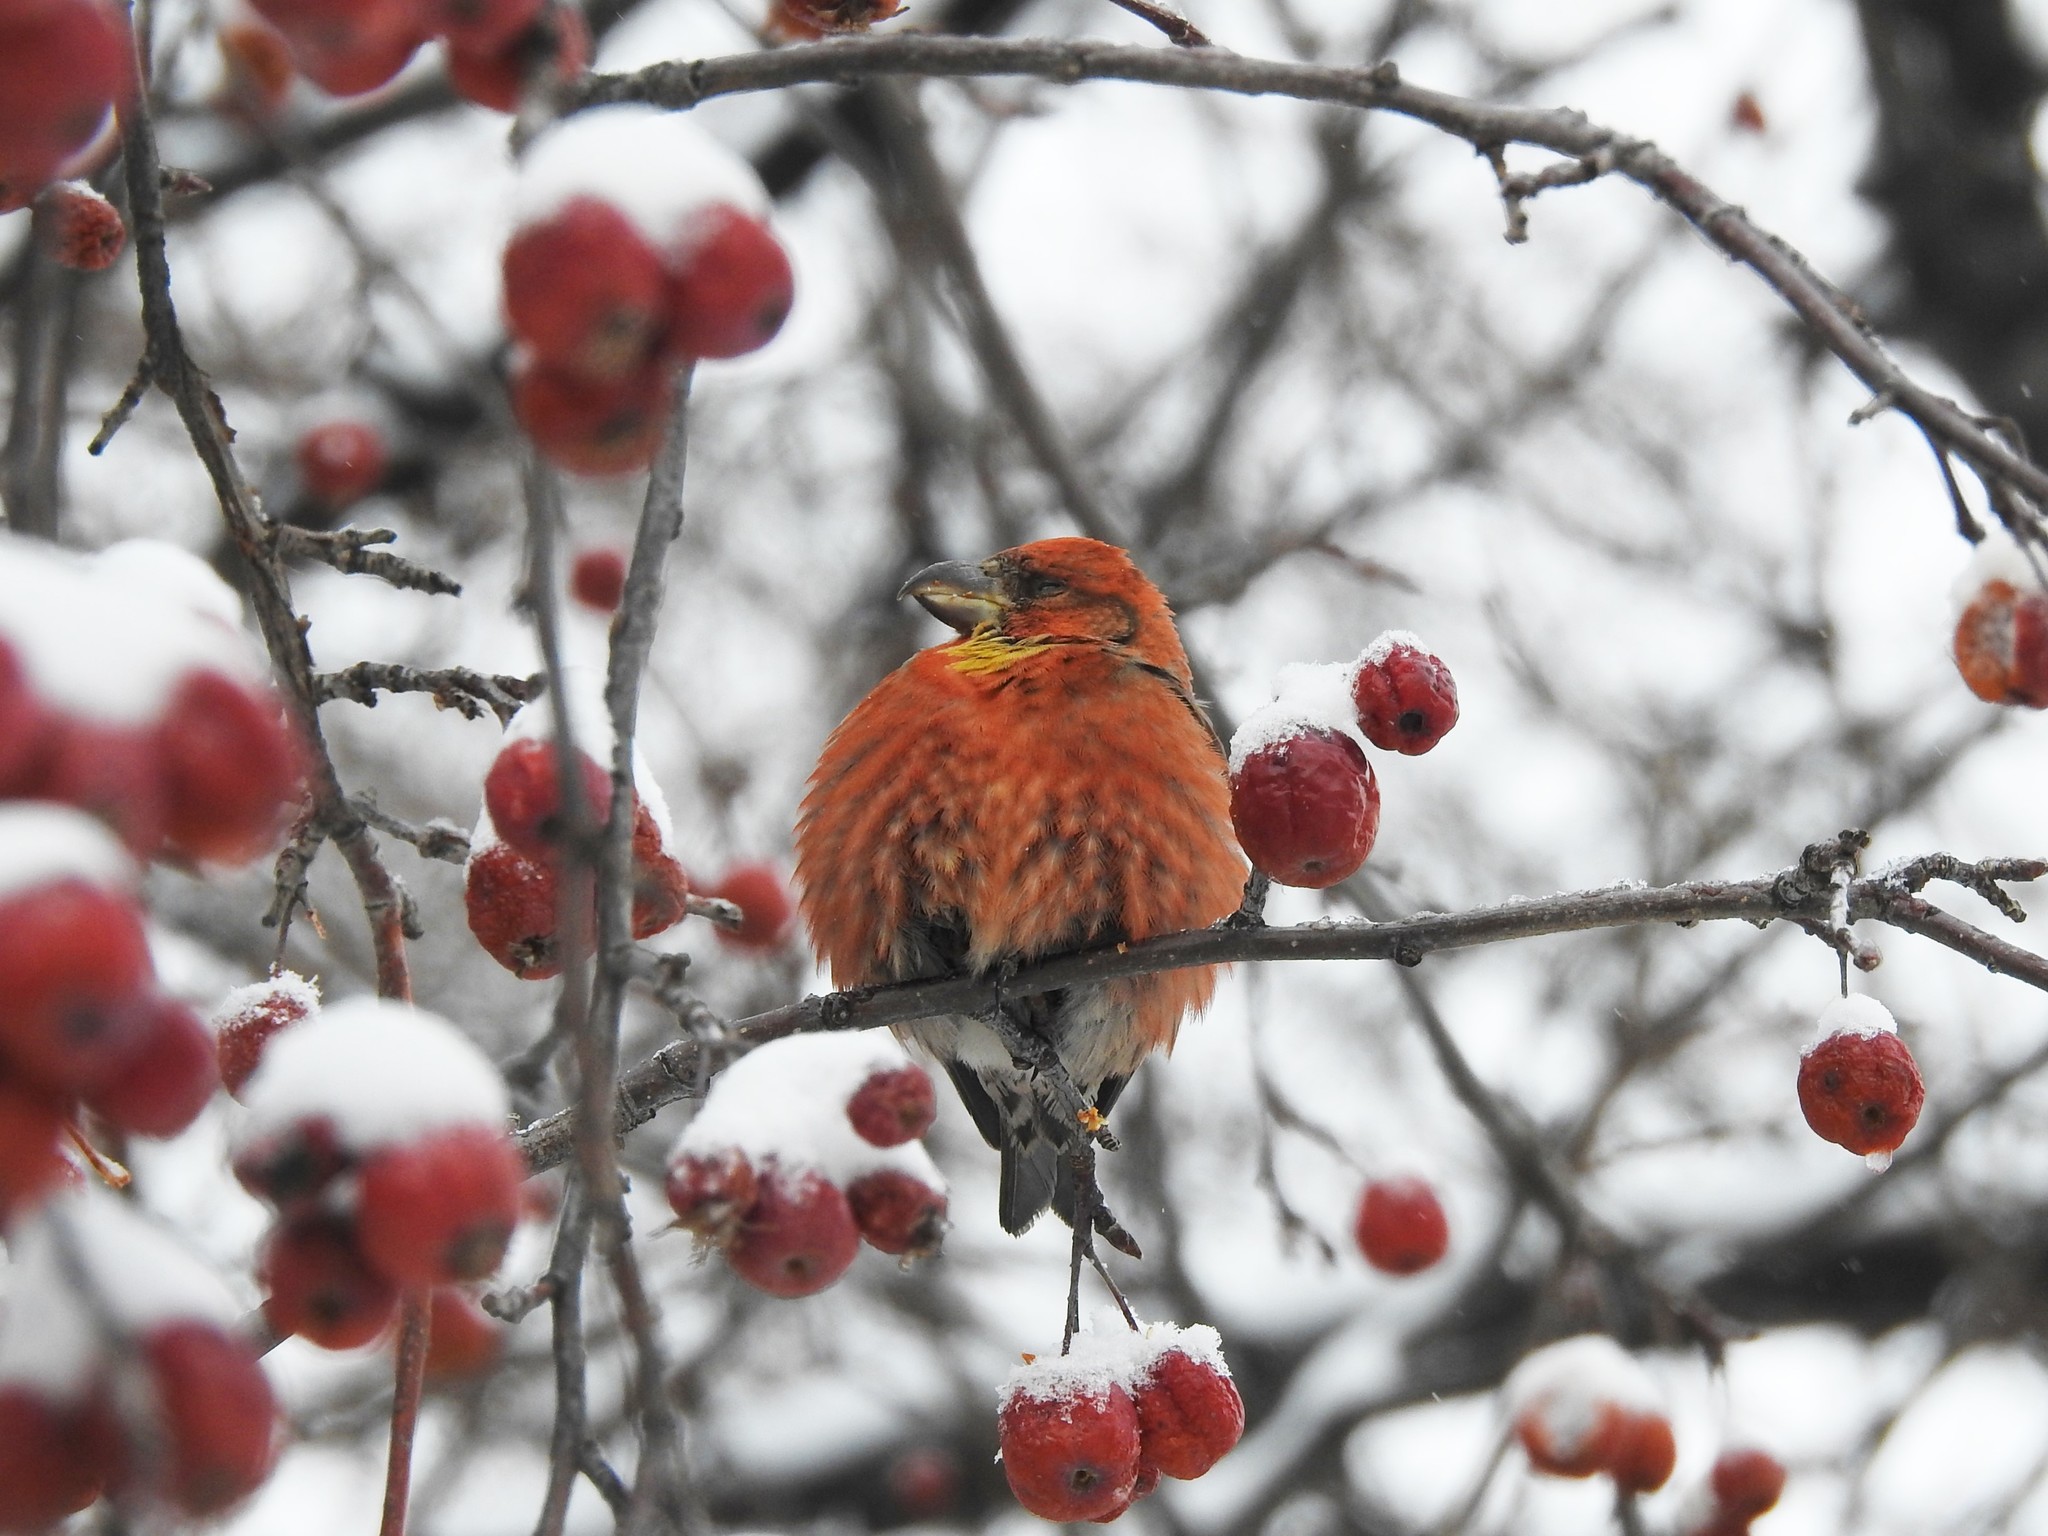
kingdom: Animalia
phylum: Chordata
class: Aves
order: Passeriformes
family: Fringillidae
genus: Loxia
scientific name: Loxia curvirostra
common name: Red crossbill
